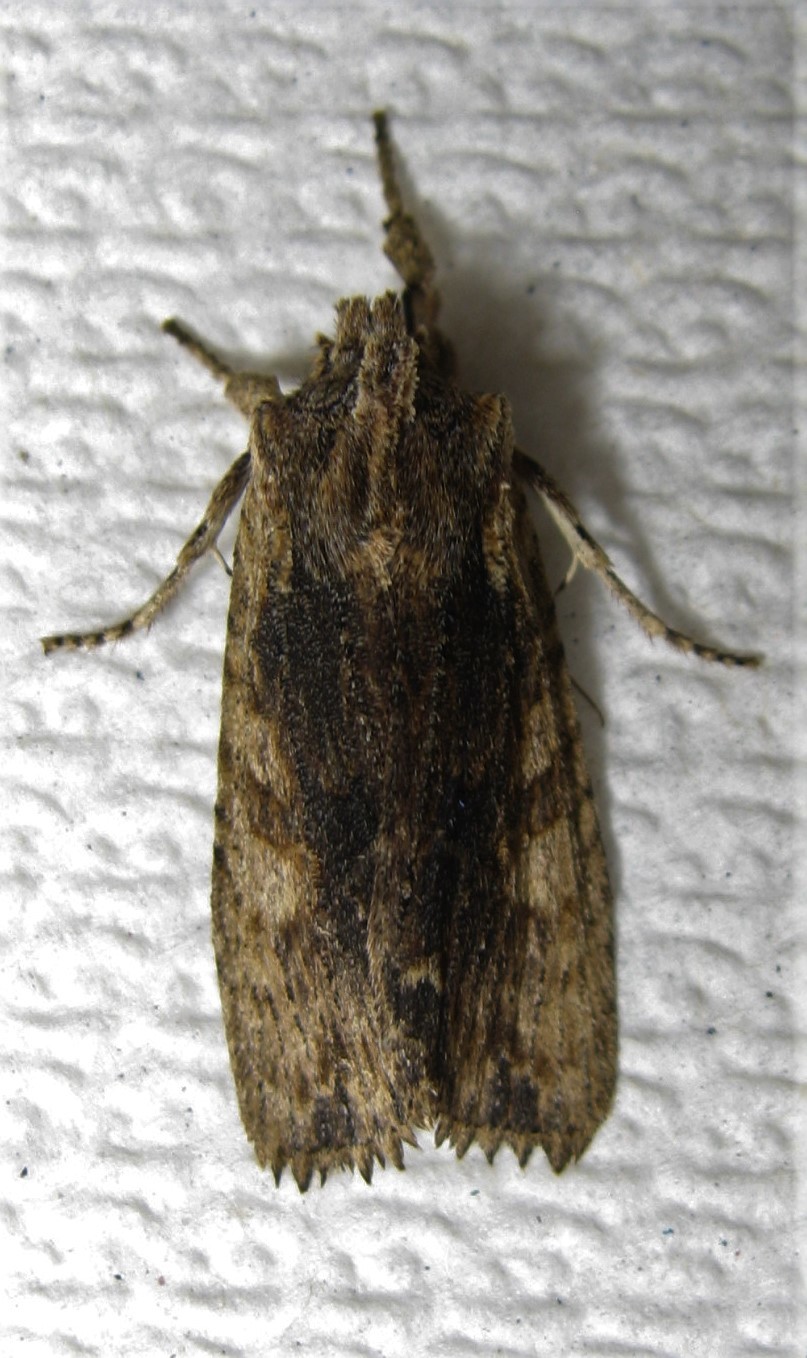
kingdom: Animalia
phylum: Arthropoda
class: Insecta
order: Lepidoptera
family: Noctuidae
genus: Lithophane
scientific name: Lithophane lanei
